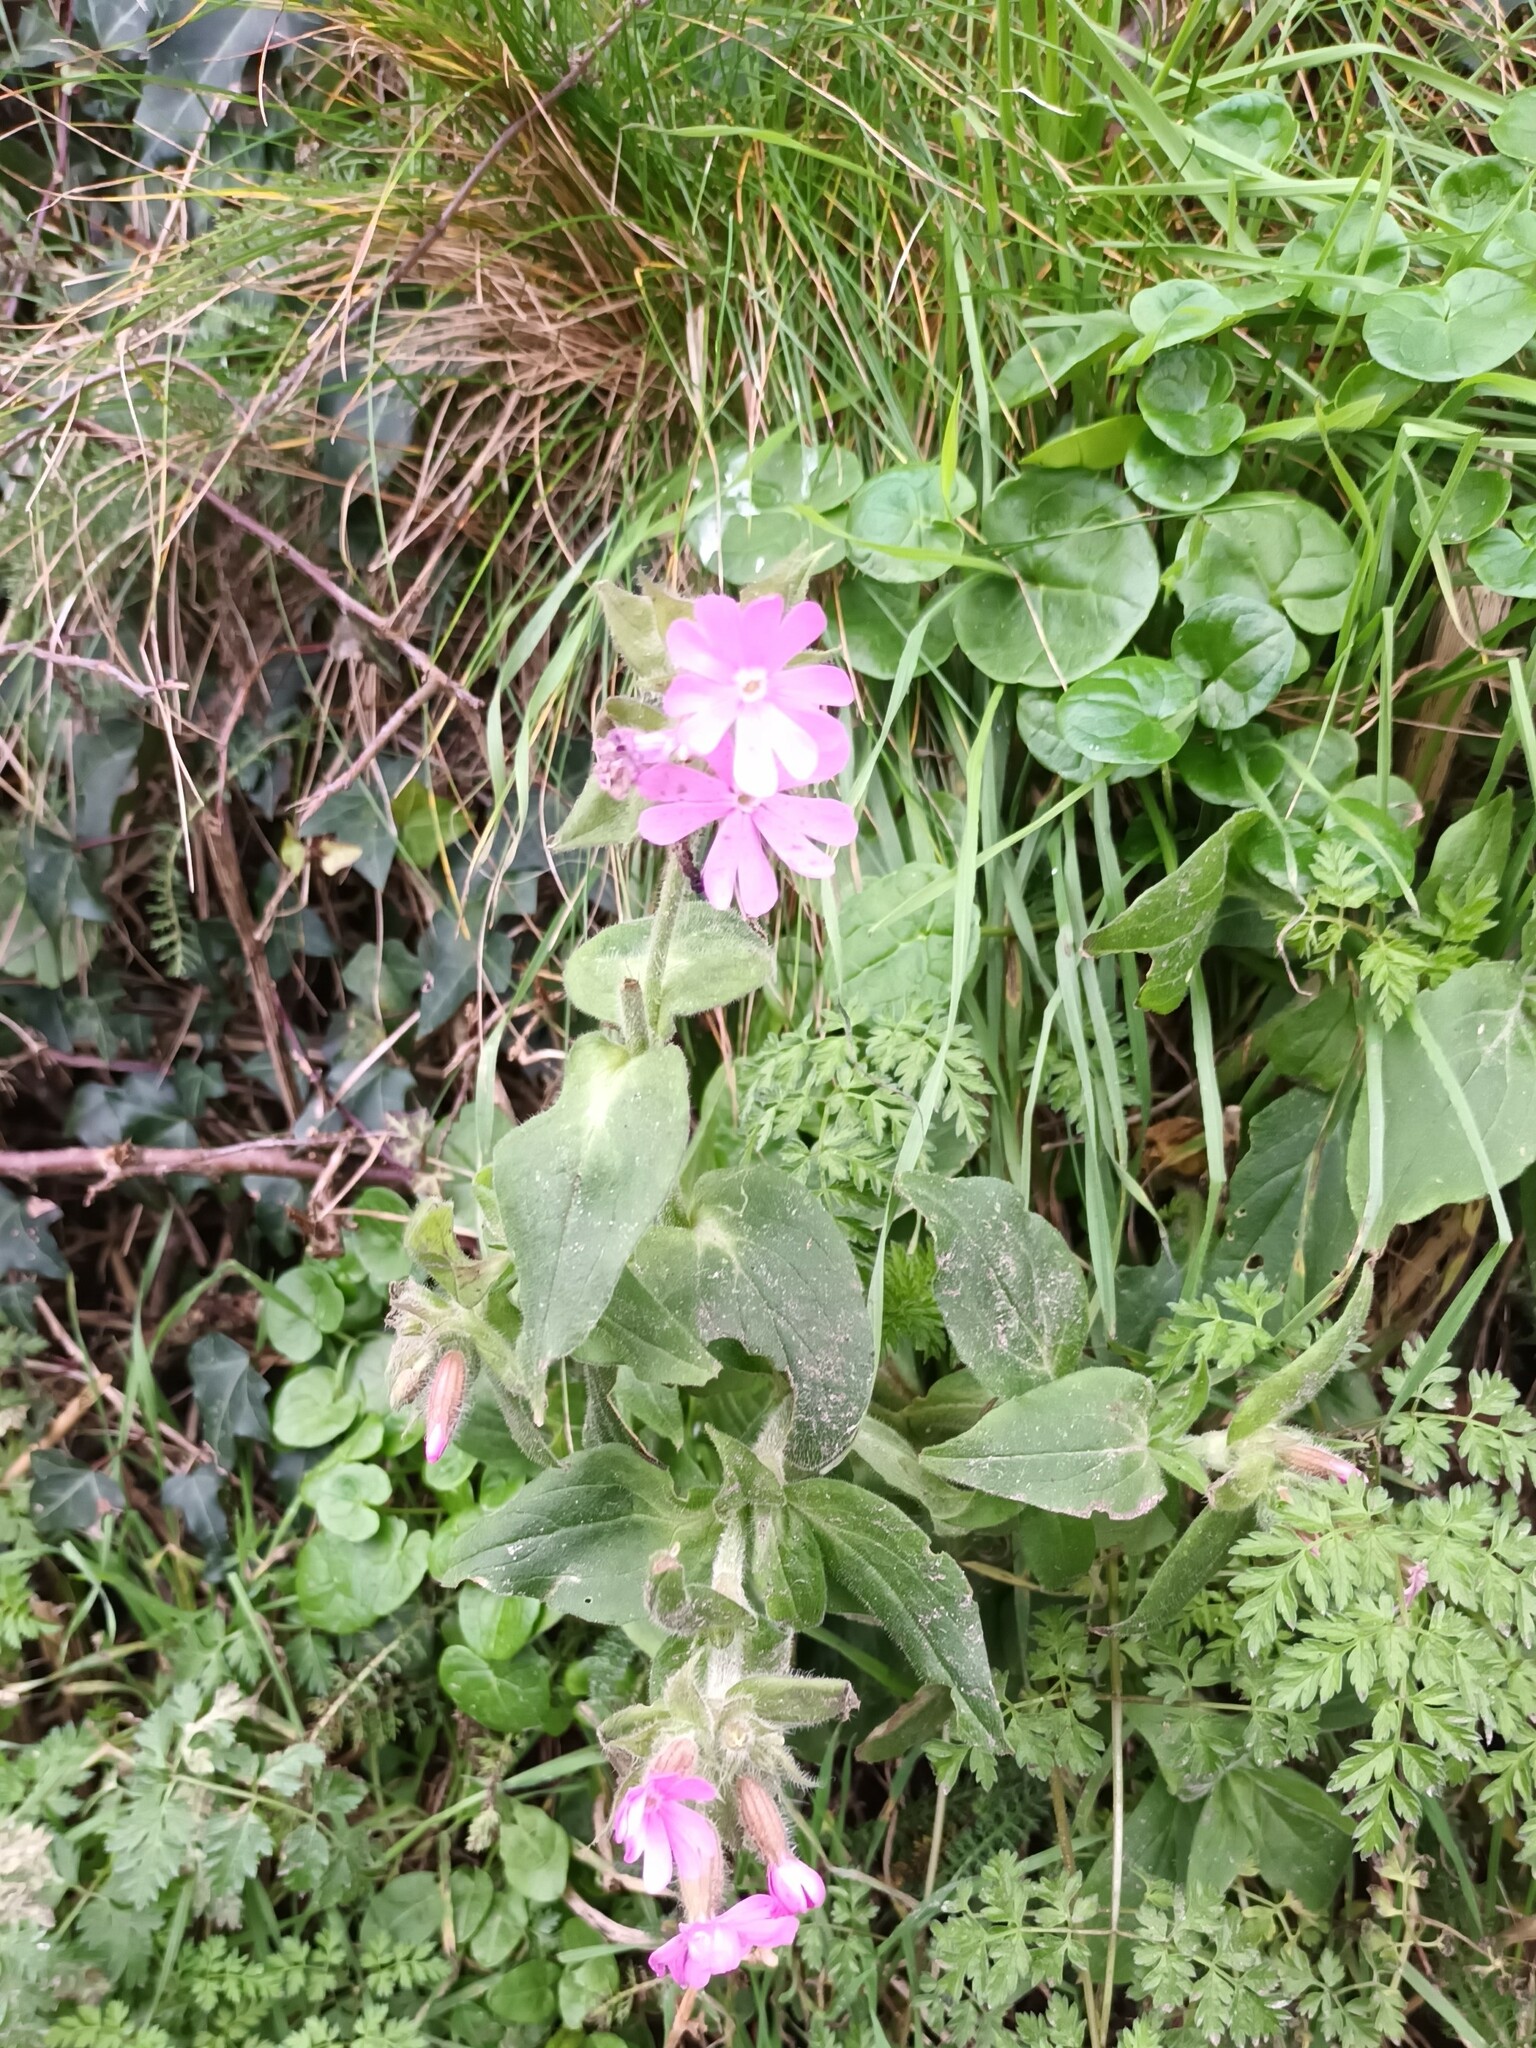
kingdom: Plantae
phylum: Tracheophyta
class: Magnoliopsida
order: Caryophyllales
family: Caryophyllaceae
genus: Silene
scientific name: Silene dioica
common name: Red campion
